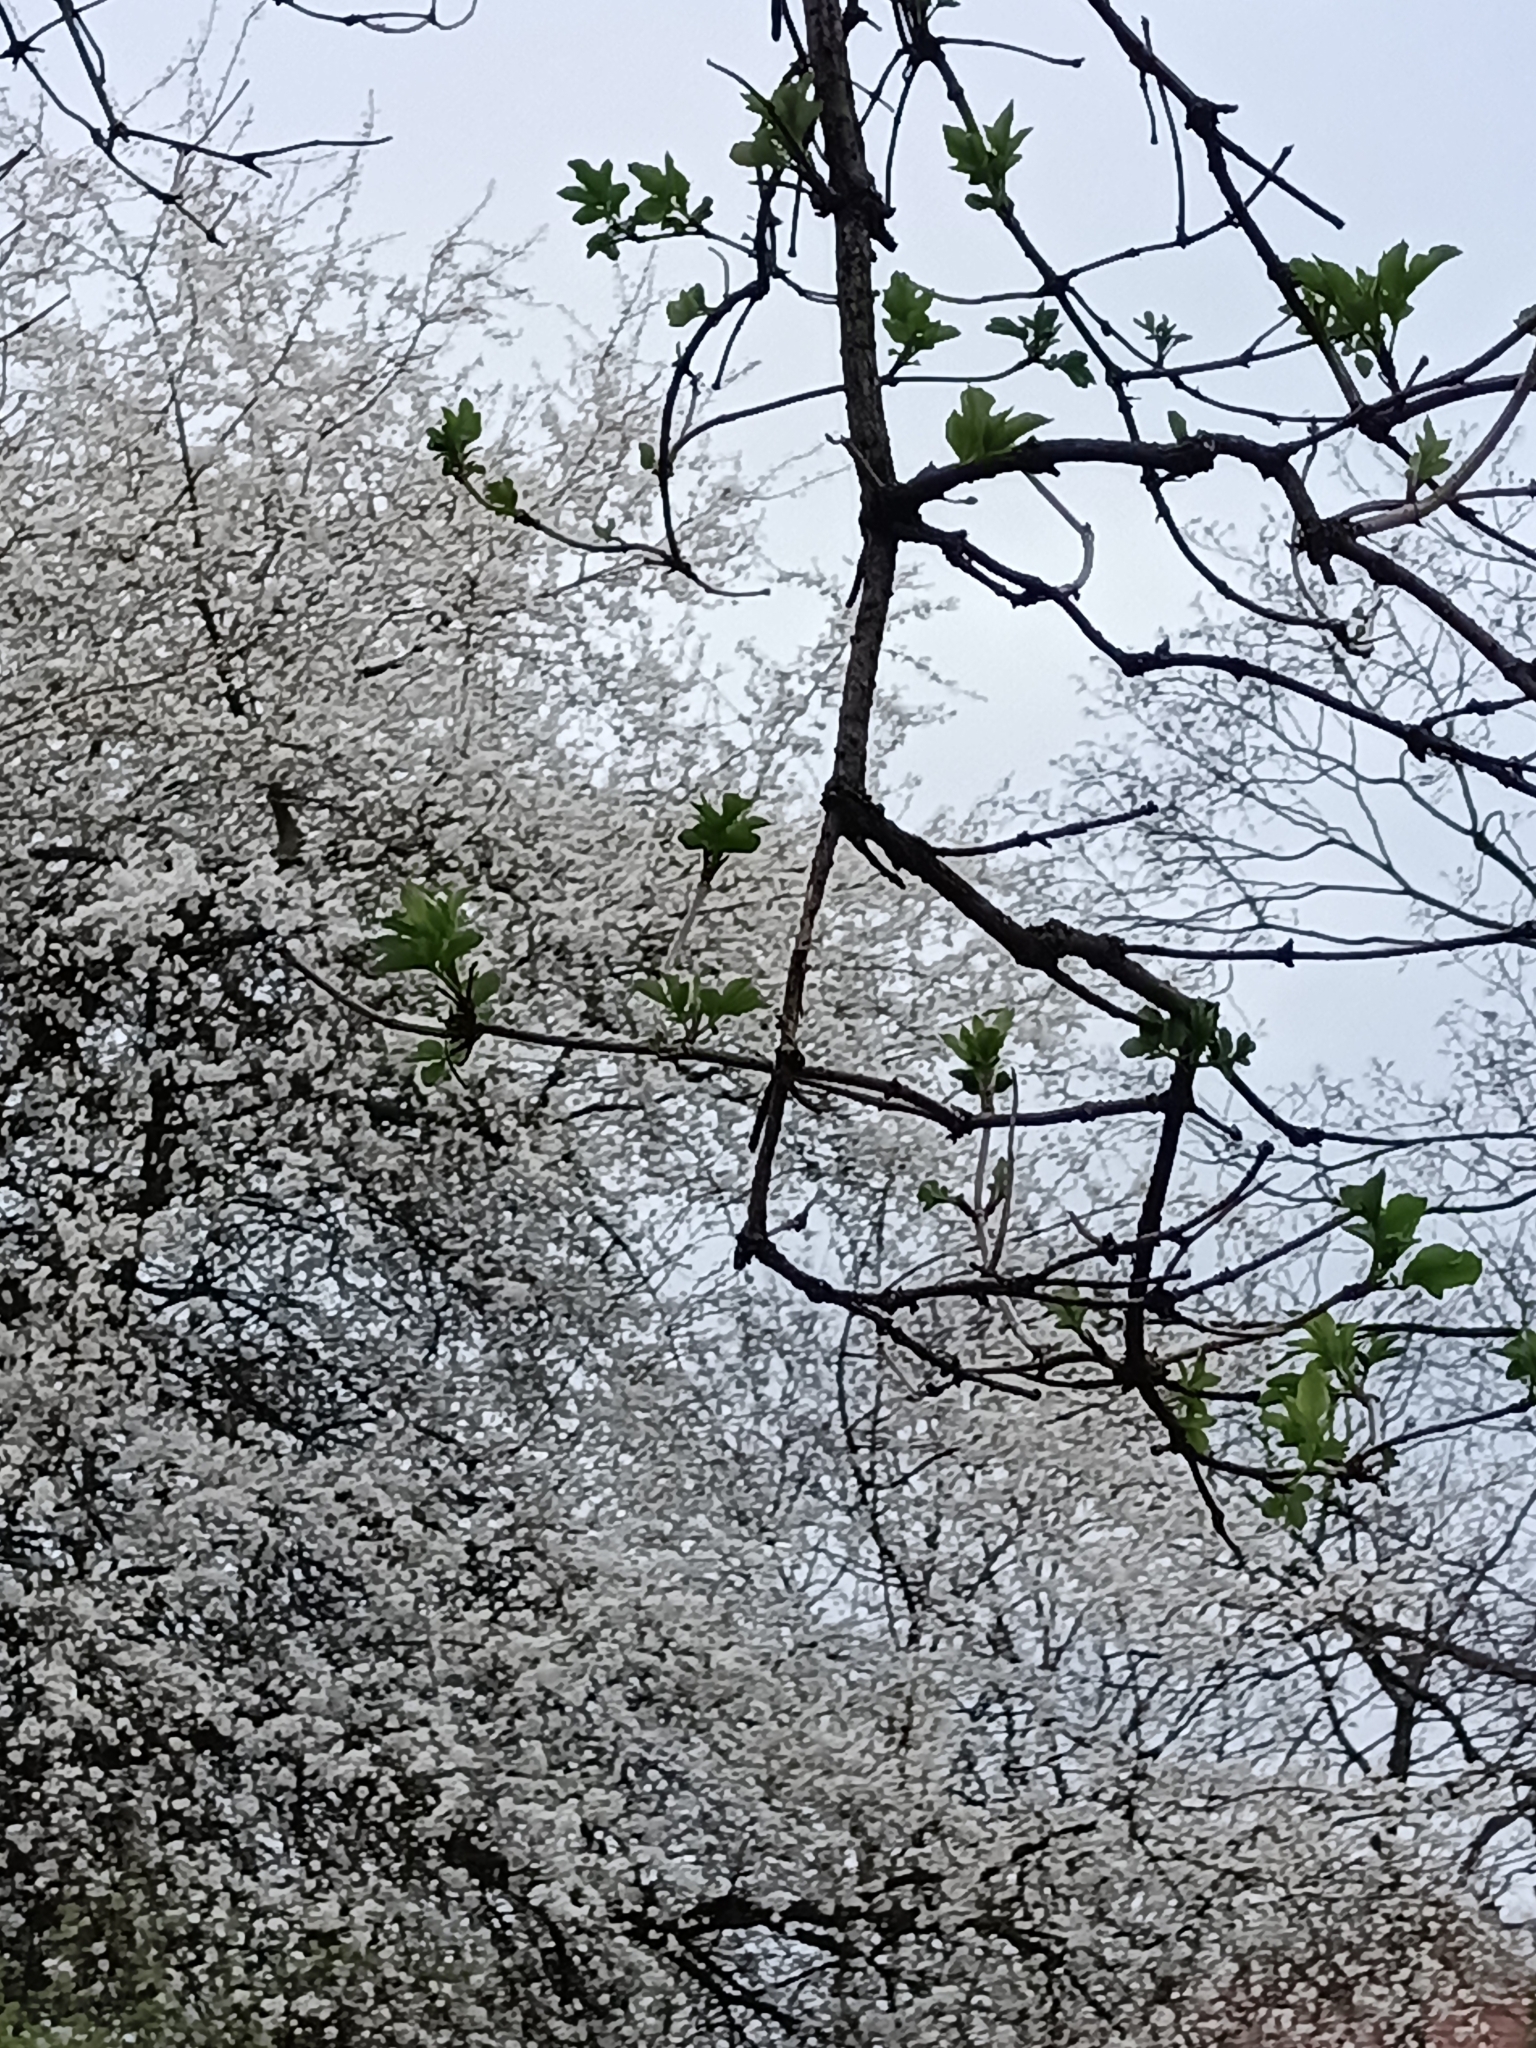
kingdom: Plantae
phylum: Tracheophyta
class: Magnoliopsida
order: Dipsacales
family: Viburnaceae
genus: Sambucus
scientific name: Sambucus nigra
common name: Elder
